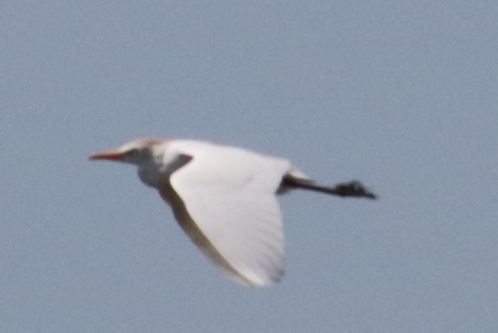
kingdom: Animalia
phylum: Chordata
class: Aves
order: Pelecaniformes
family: Ardeidae
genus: Bubulcus
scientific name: Bubulcus ibis
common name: Cattle egret
